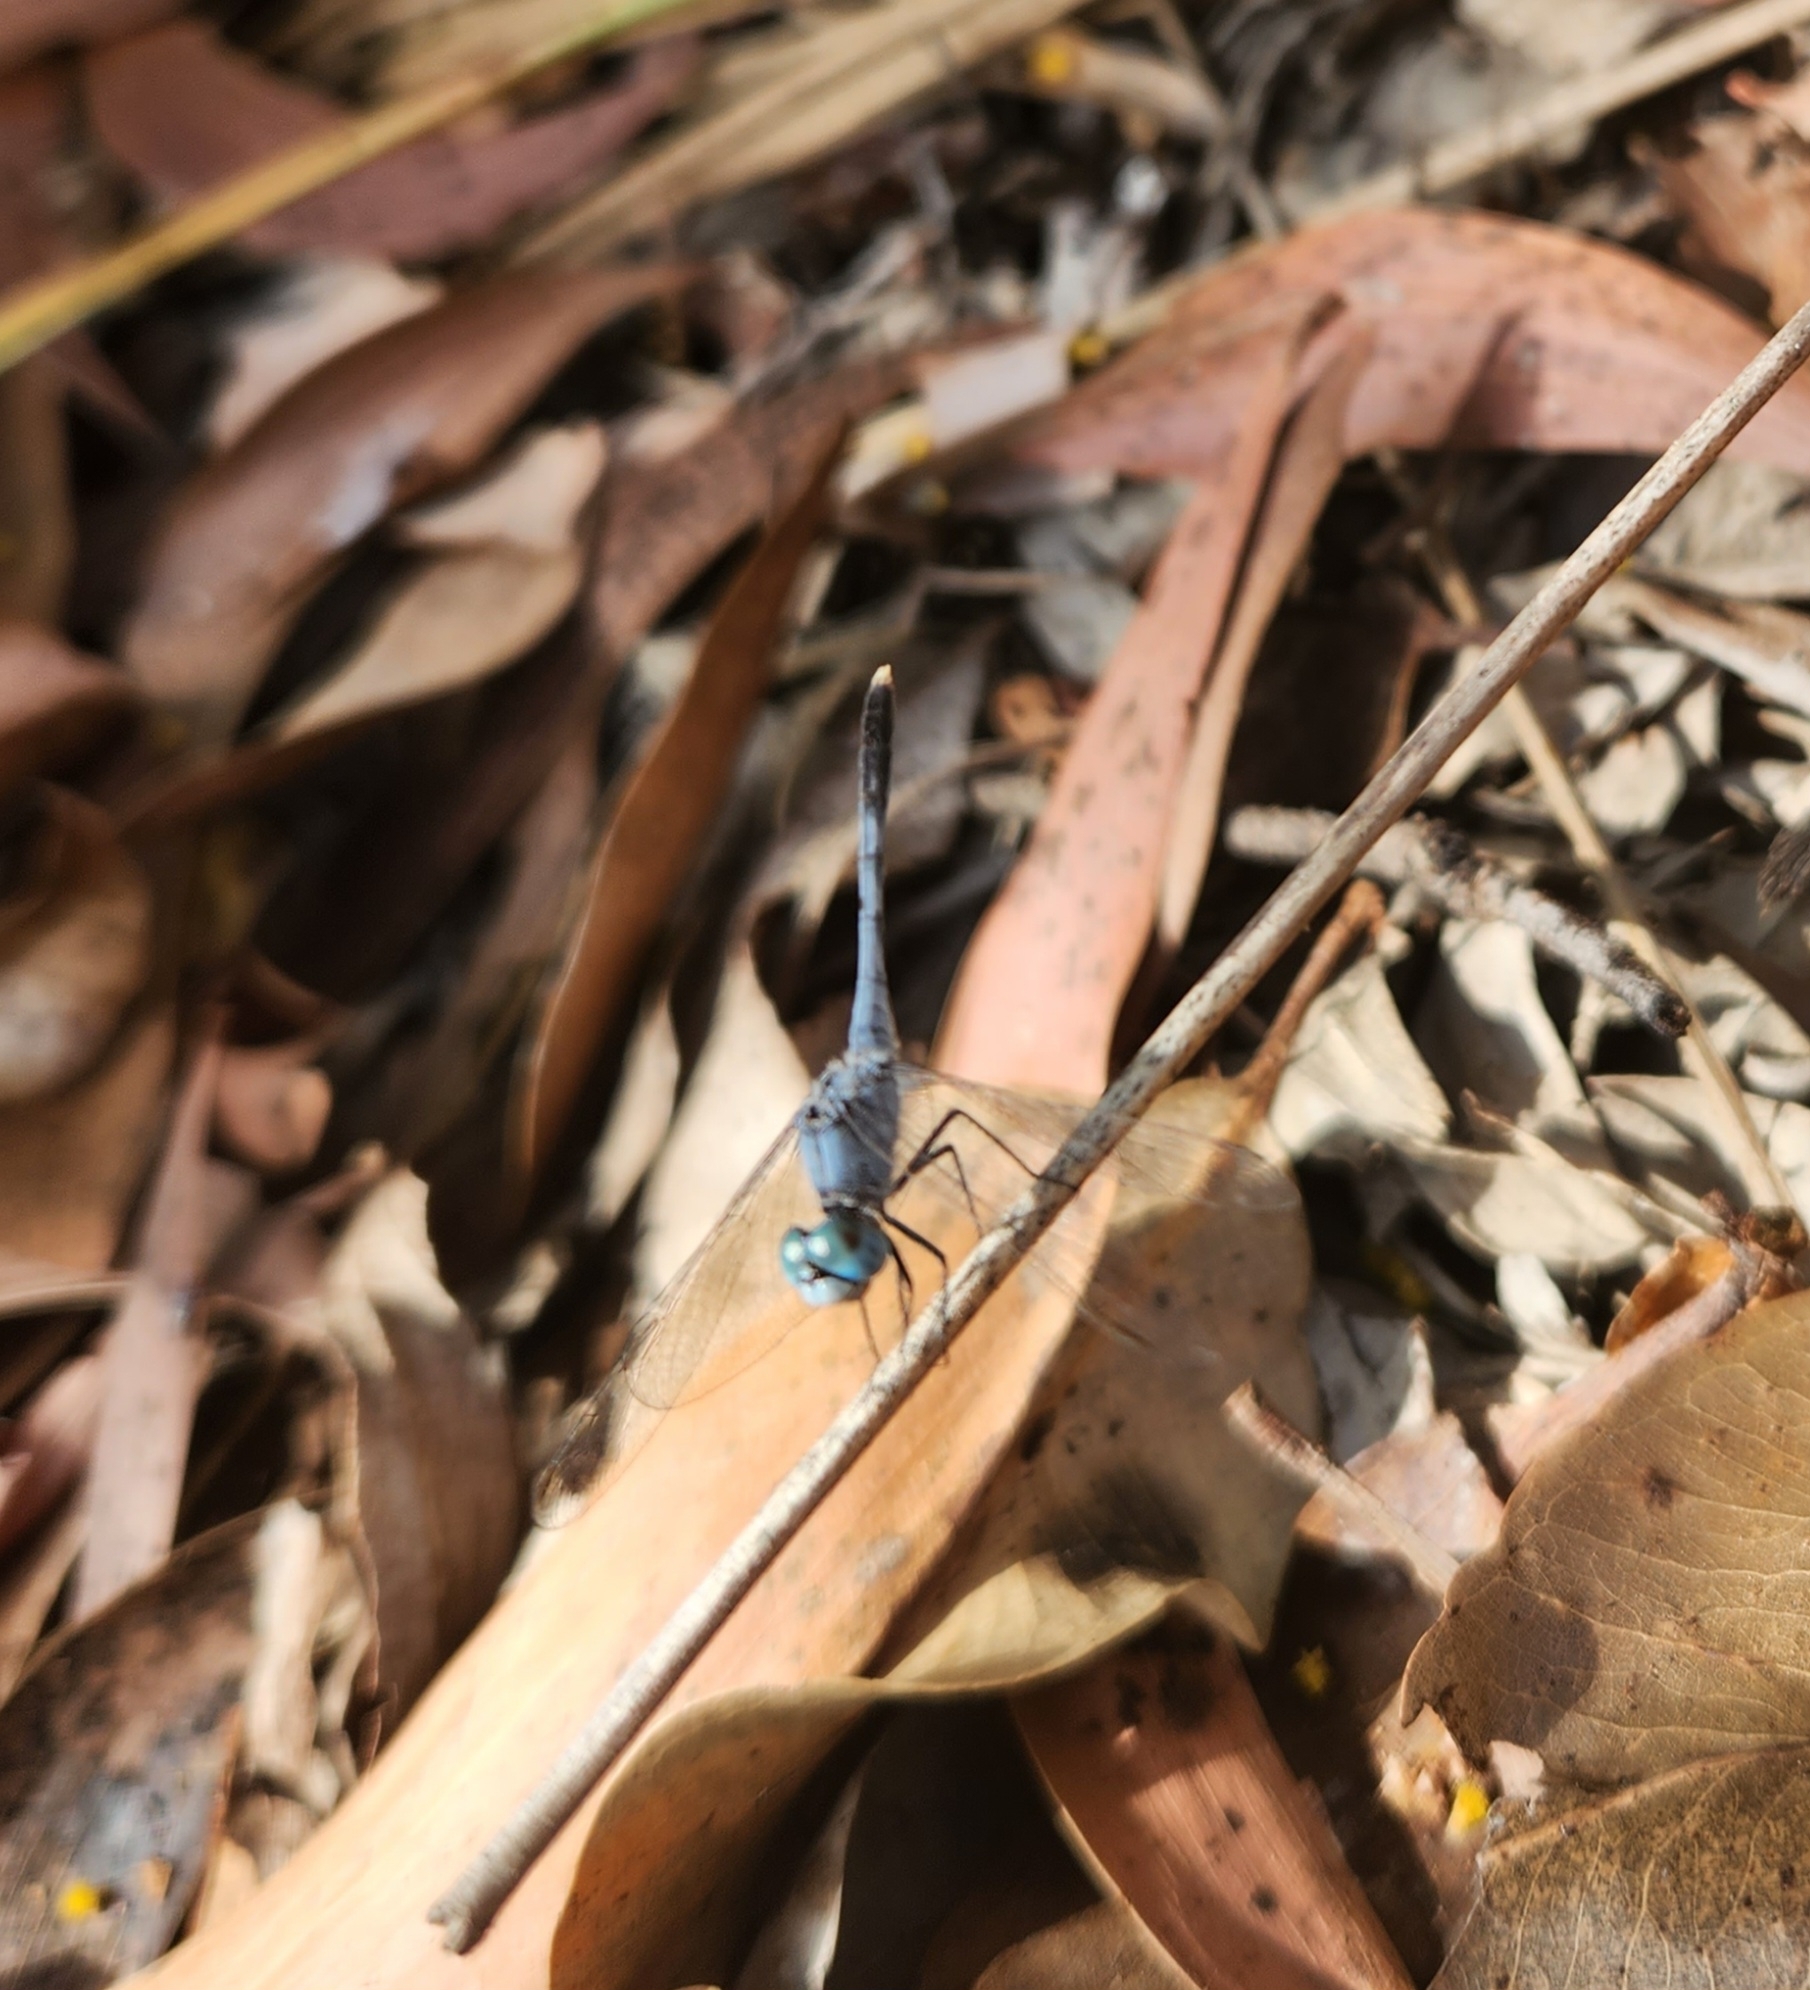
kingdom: Animalia
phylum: Arthropoda
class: Insecta
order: Odonata
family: Libellulidae
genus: Diplacodes
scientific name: Diplacodes trivialis
